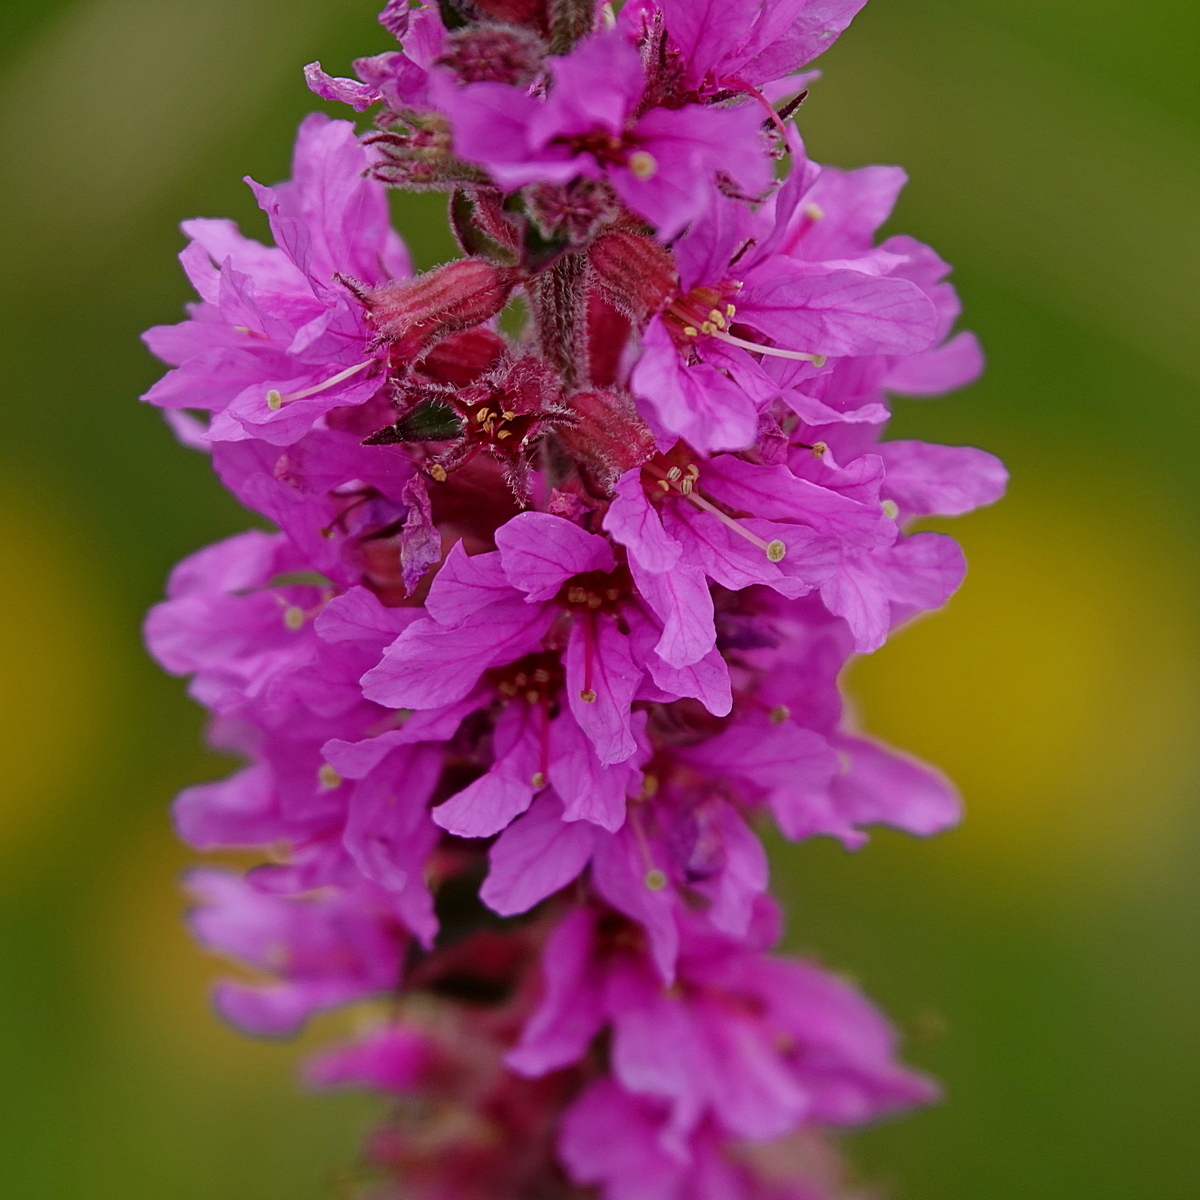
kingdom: Plantae
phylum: Tracheophyta
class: Magnoliopsida
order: Myrtales
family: Lythraceae
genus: Lythrum
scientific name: Lythrum salicaria
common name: Purple loosestrife
